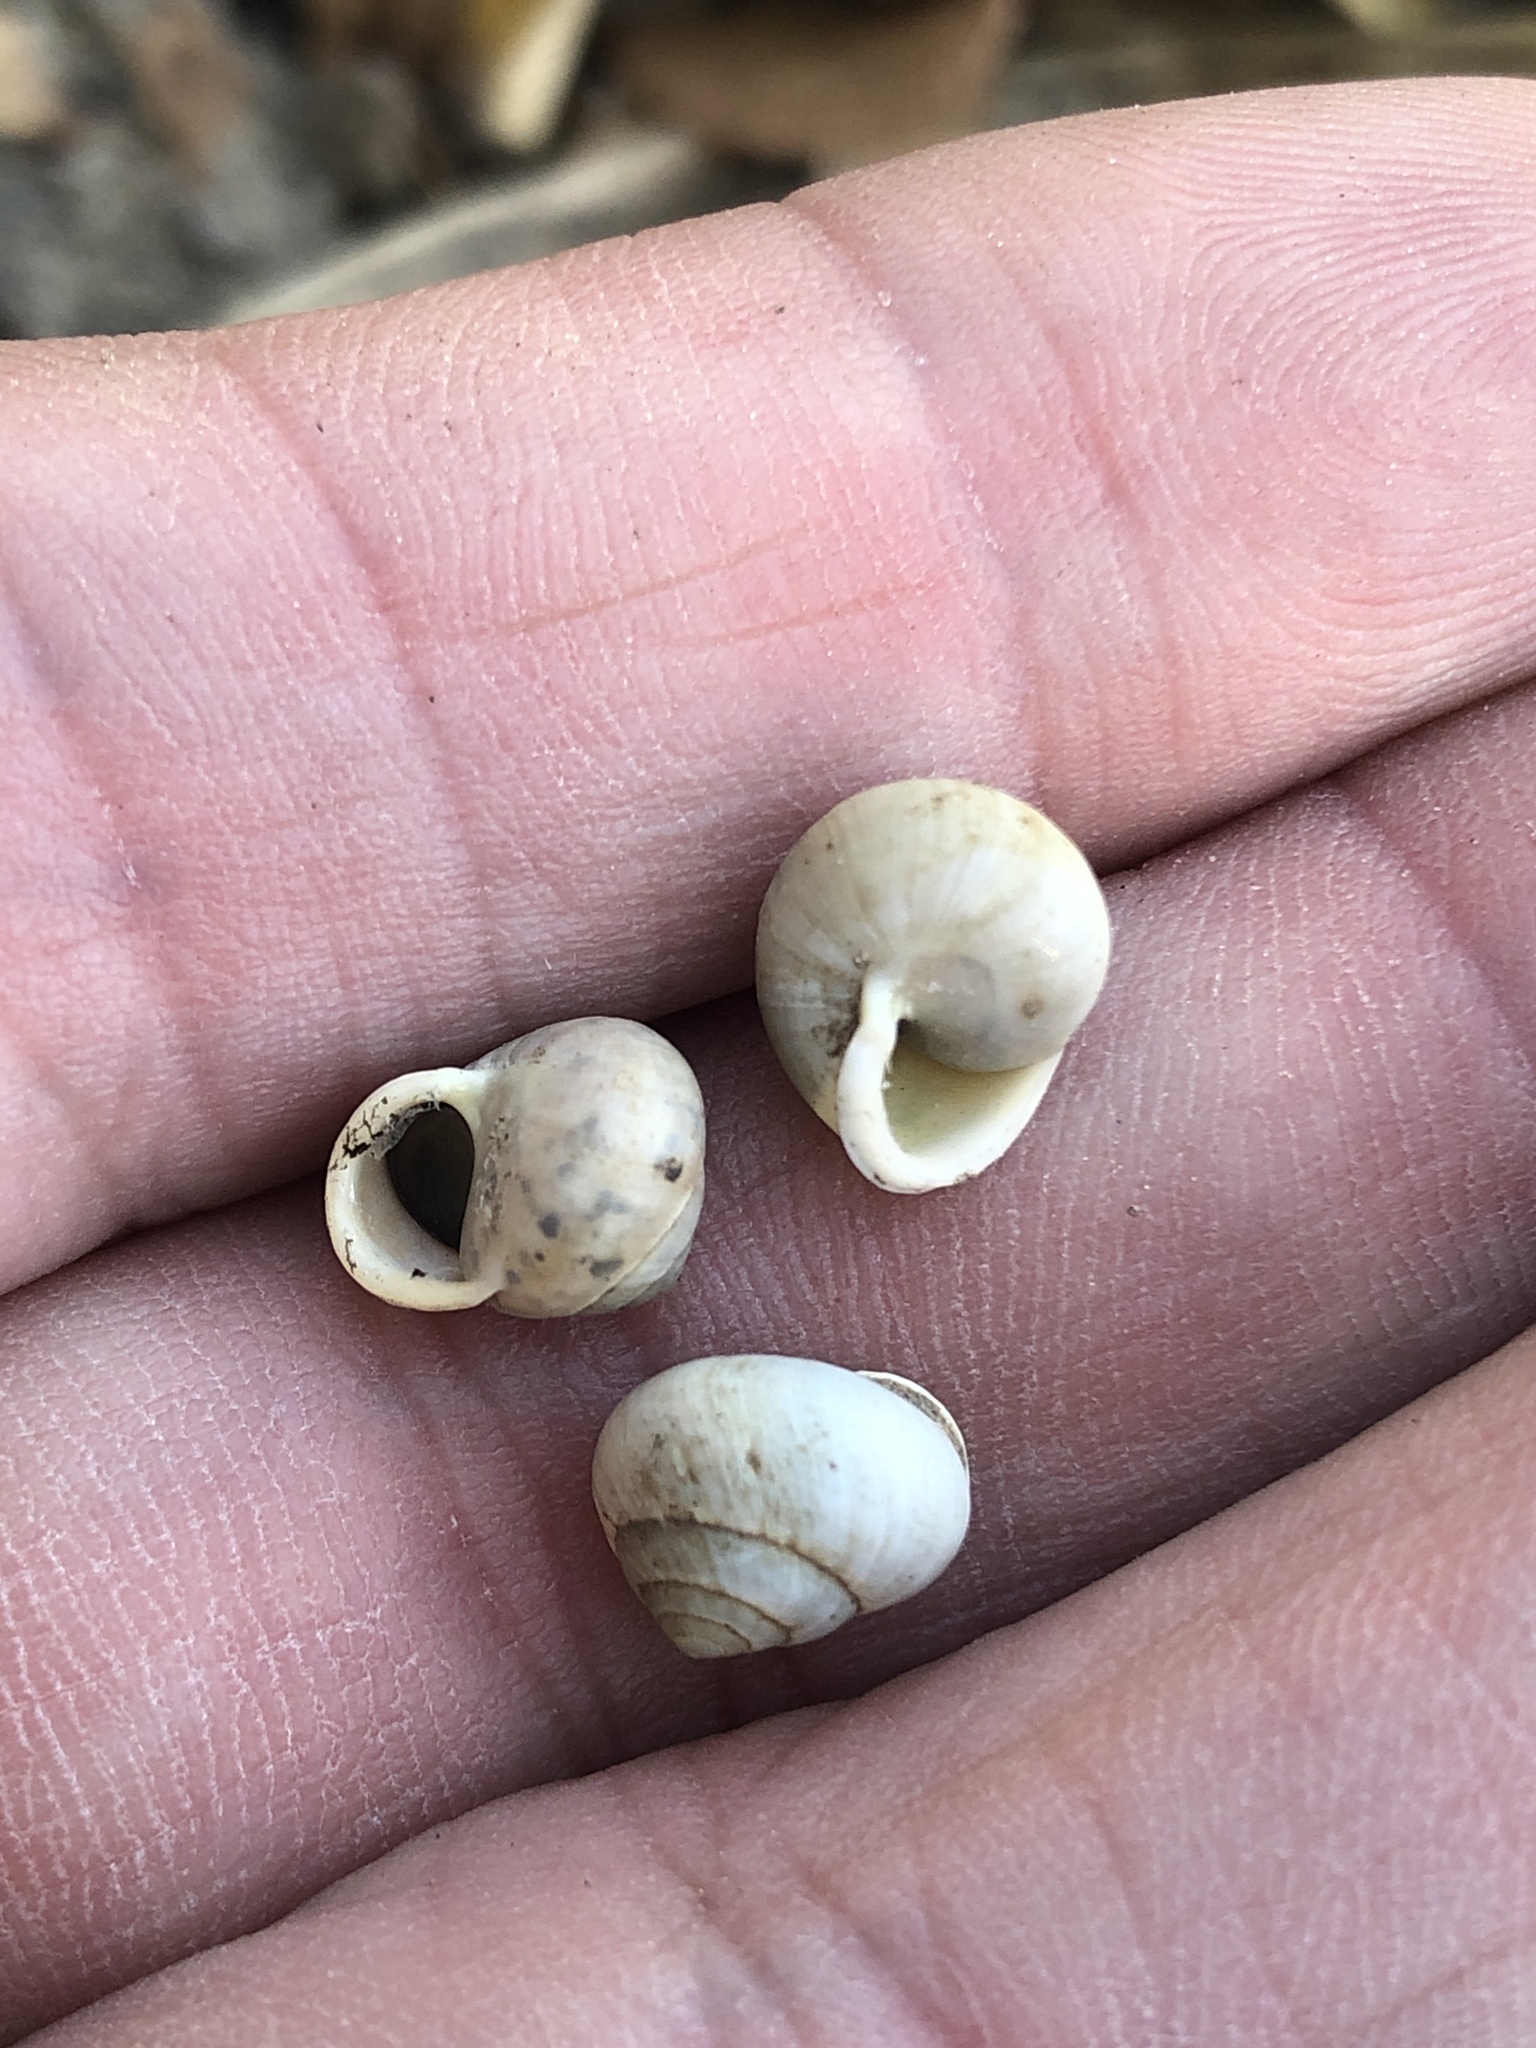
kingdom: Animalia
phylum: Mollusca
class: Gastropoda
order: Cycloneritida
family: Helicinidae
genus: Helicina
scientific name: Helicina orbiculata
